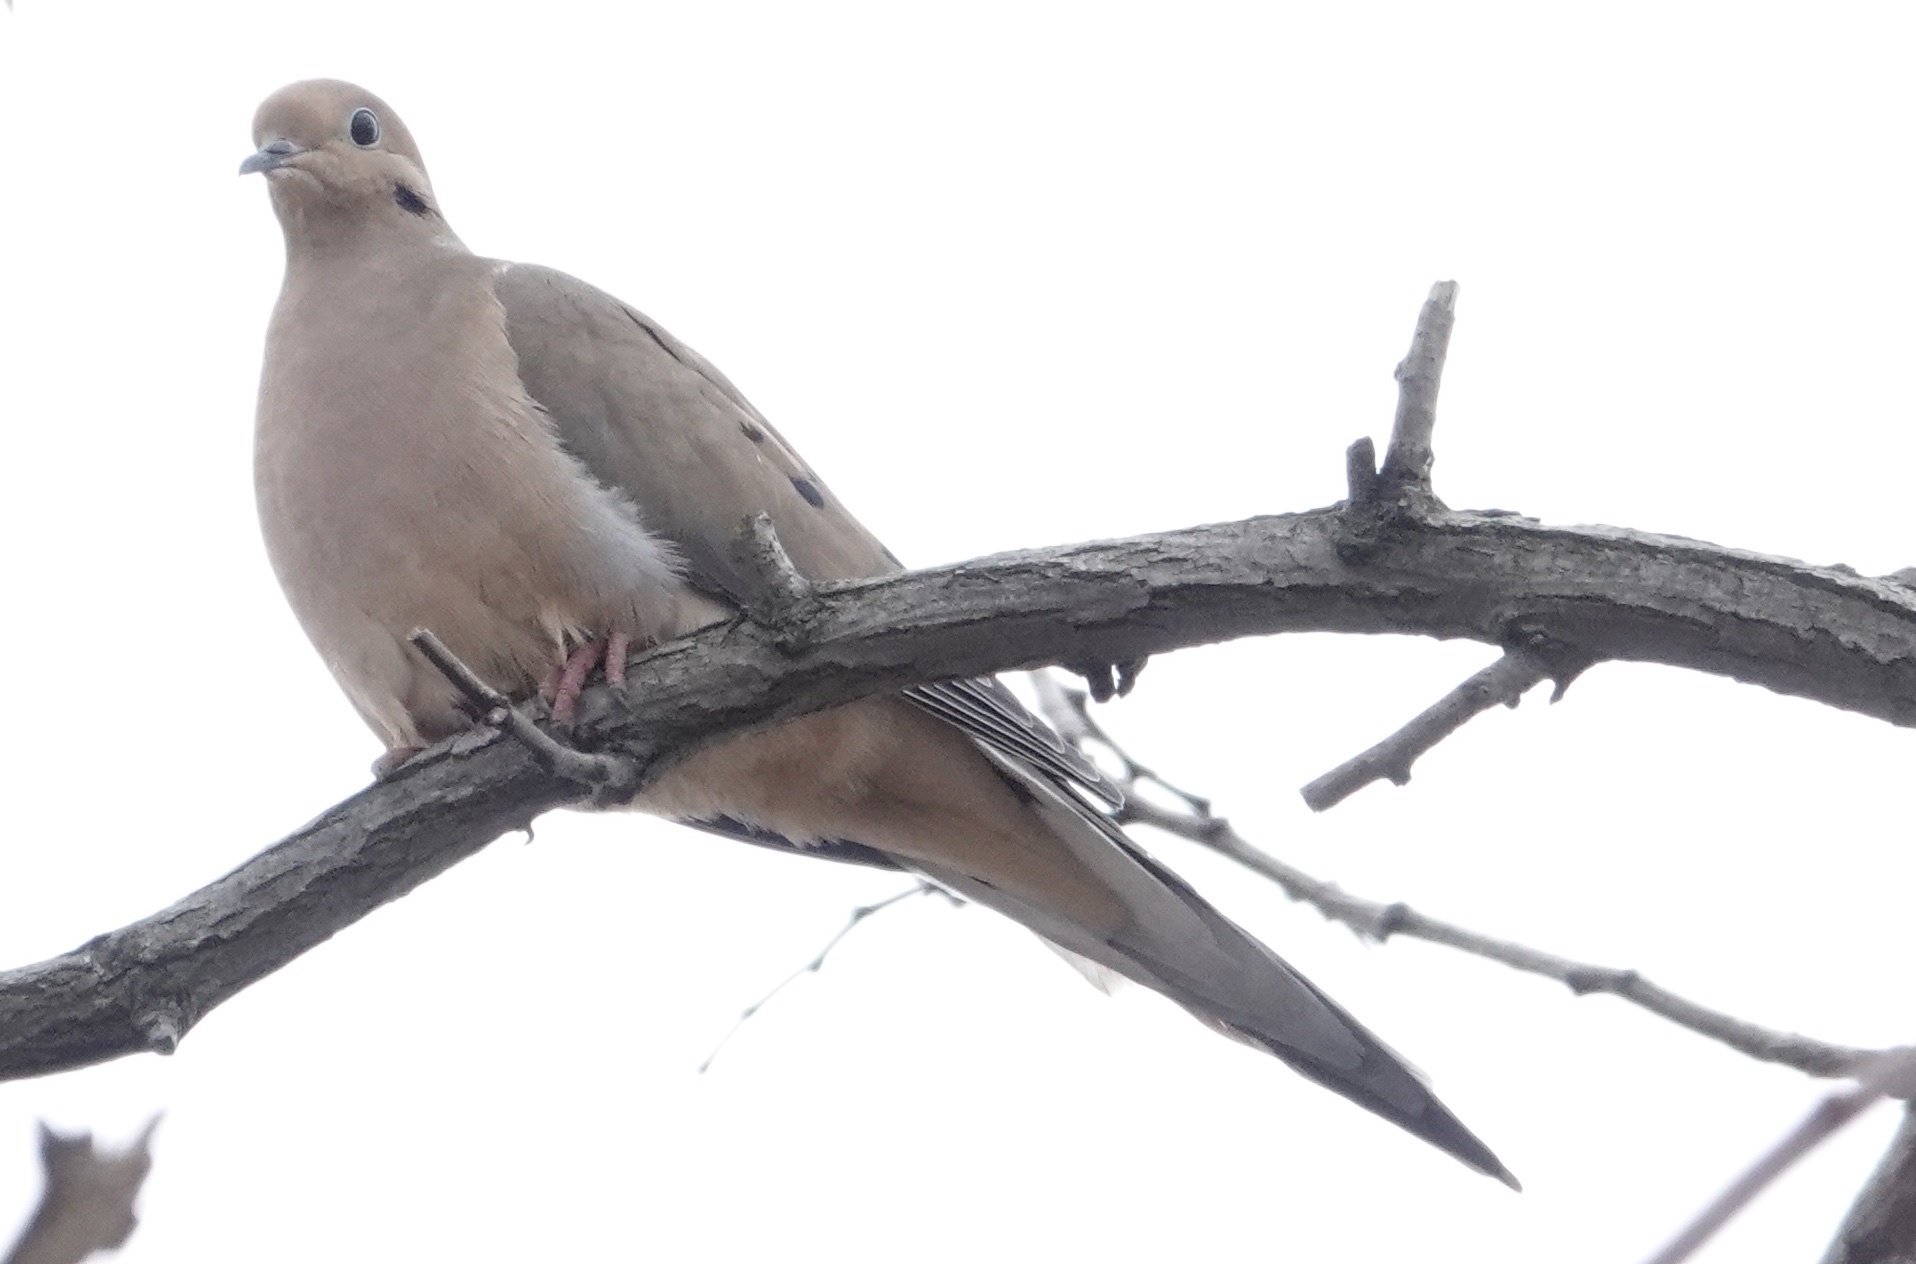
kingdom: Animalia
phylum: Chordata
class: Aves
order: Columbiformes
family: Columbidae
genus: Zenaida
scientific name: Zenaida macroura
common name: Mourning dove
